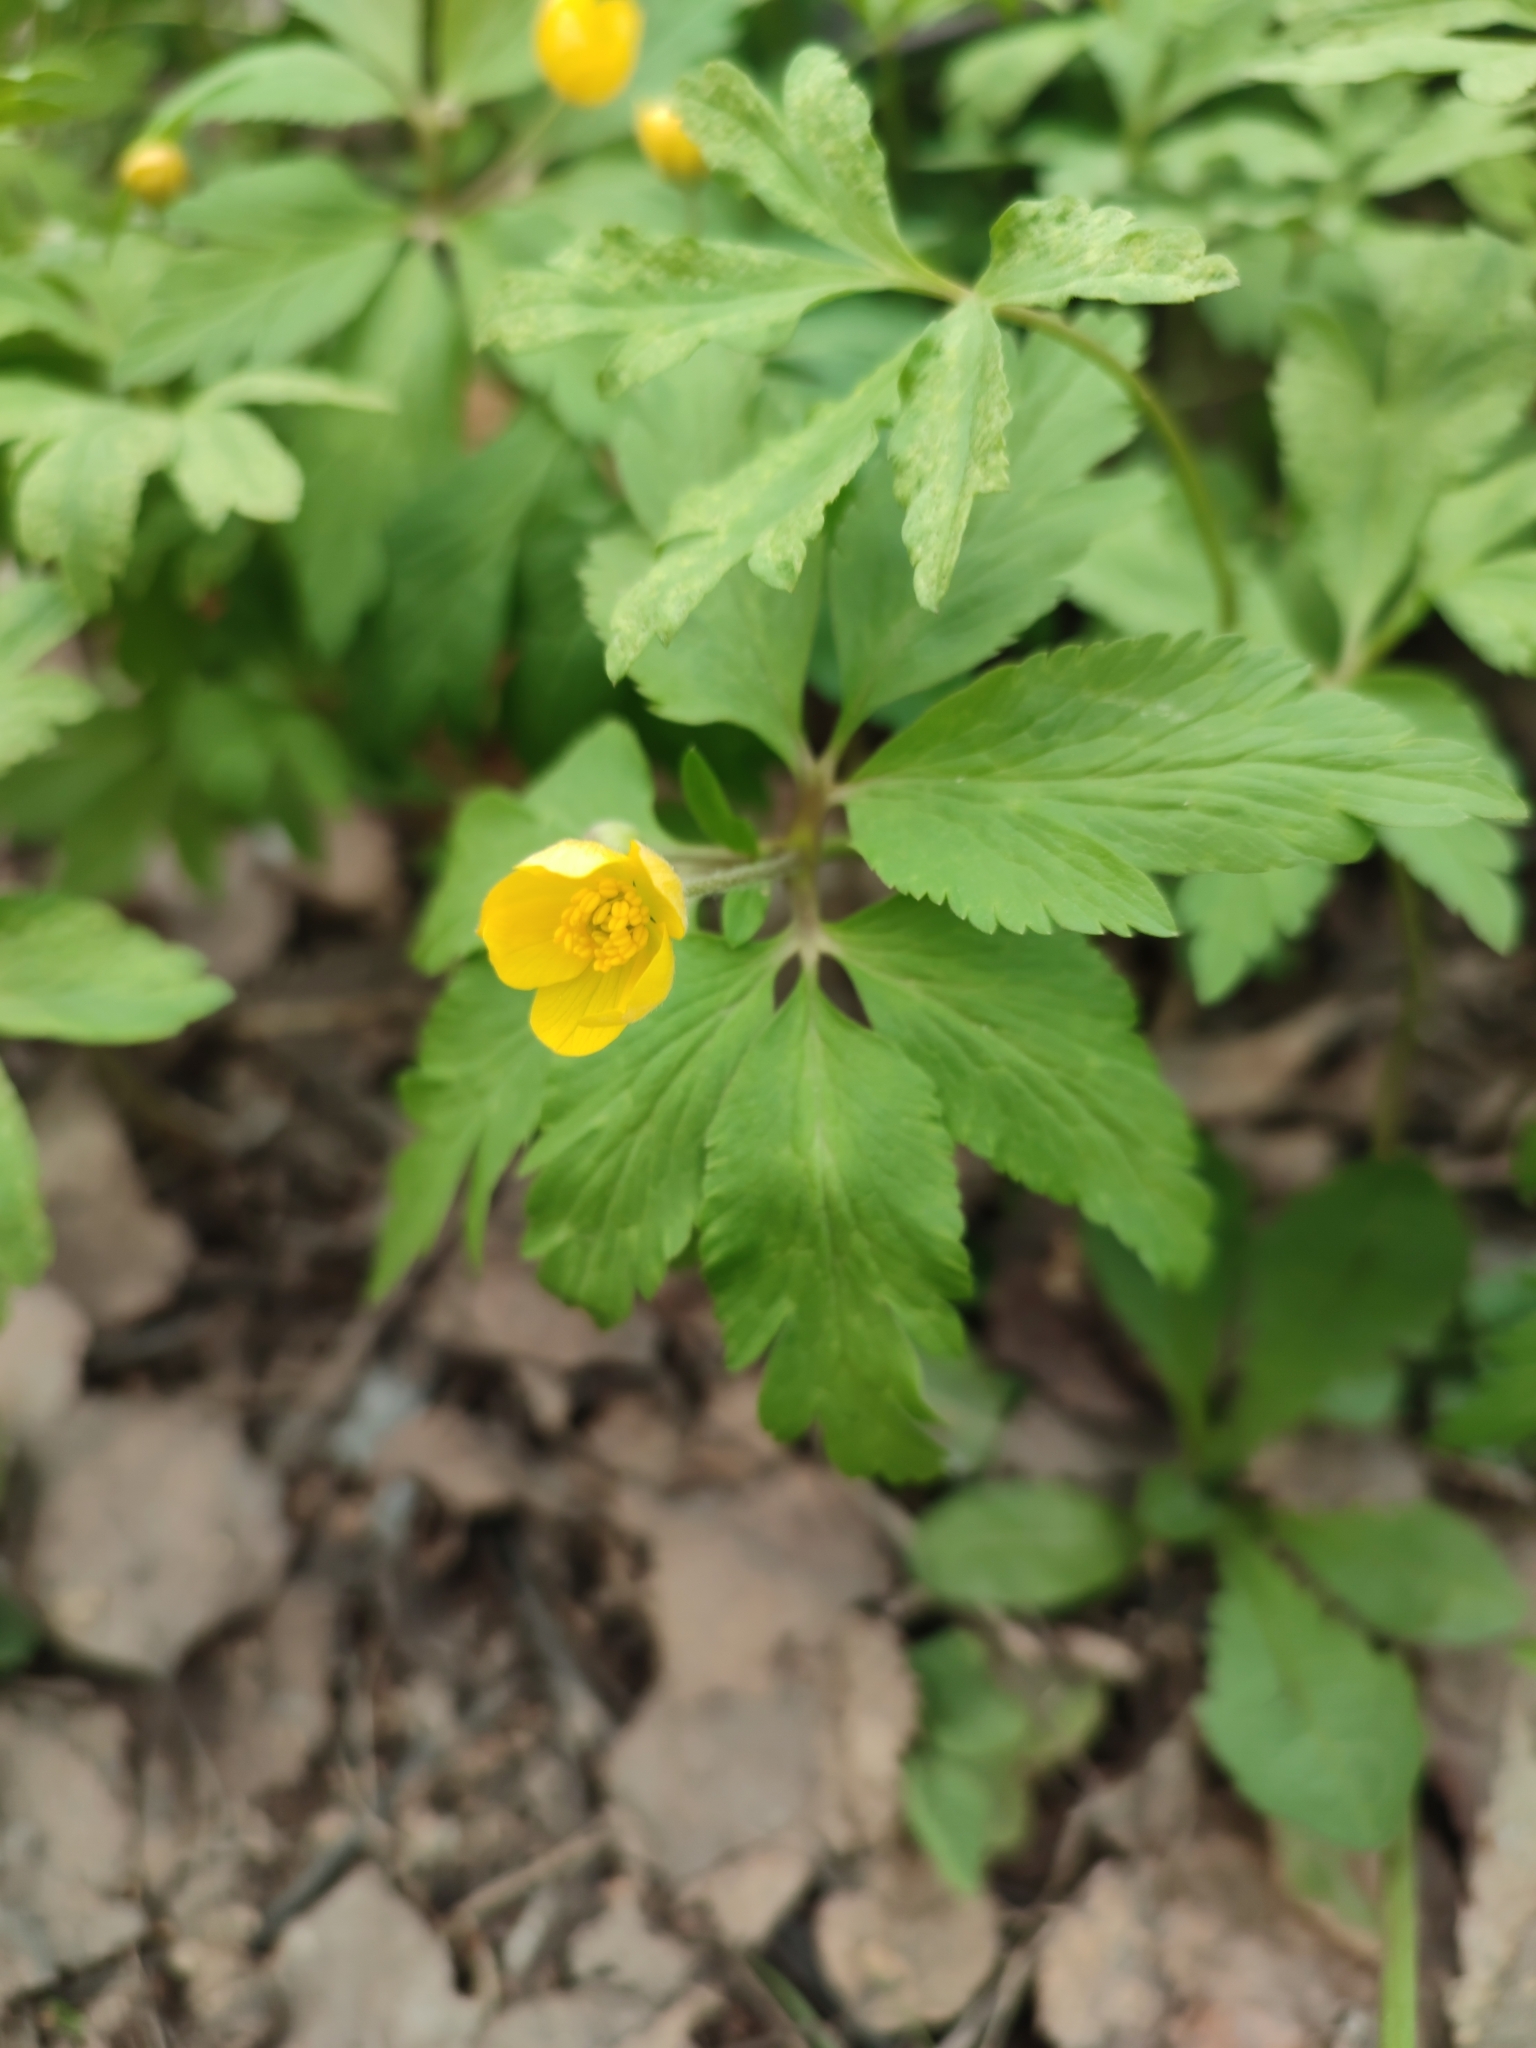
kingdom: Plantae
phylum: Tracheophyta
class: Magnoliopsida
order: Ranunculales
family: Ranunculaceae
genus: Anemone
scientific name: Anemone ranunculoides
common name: Yellow anemone
